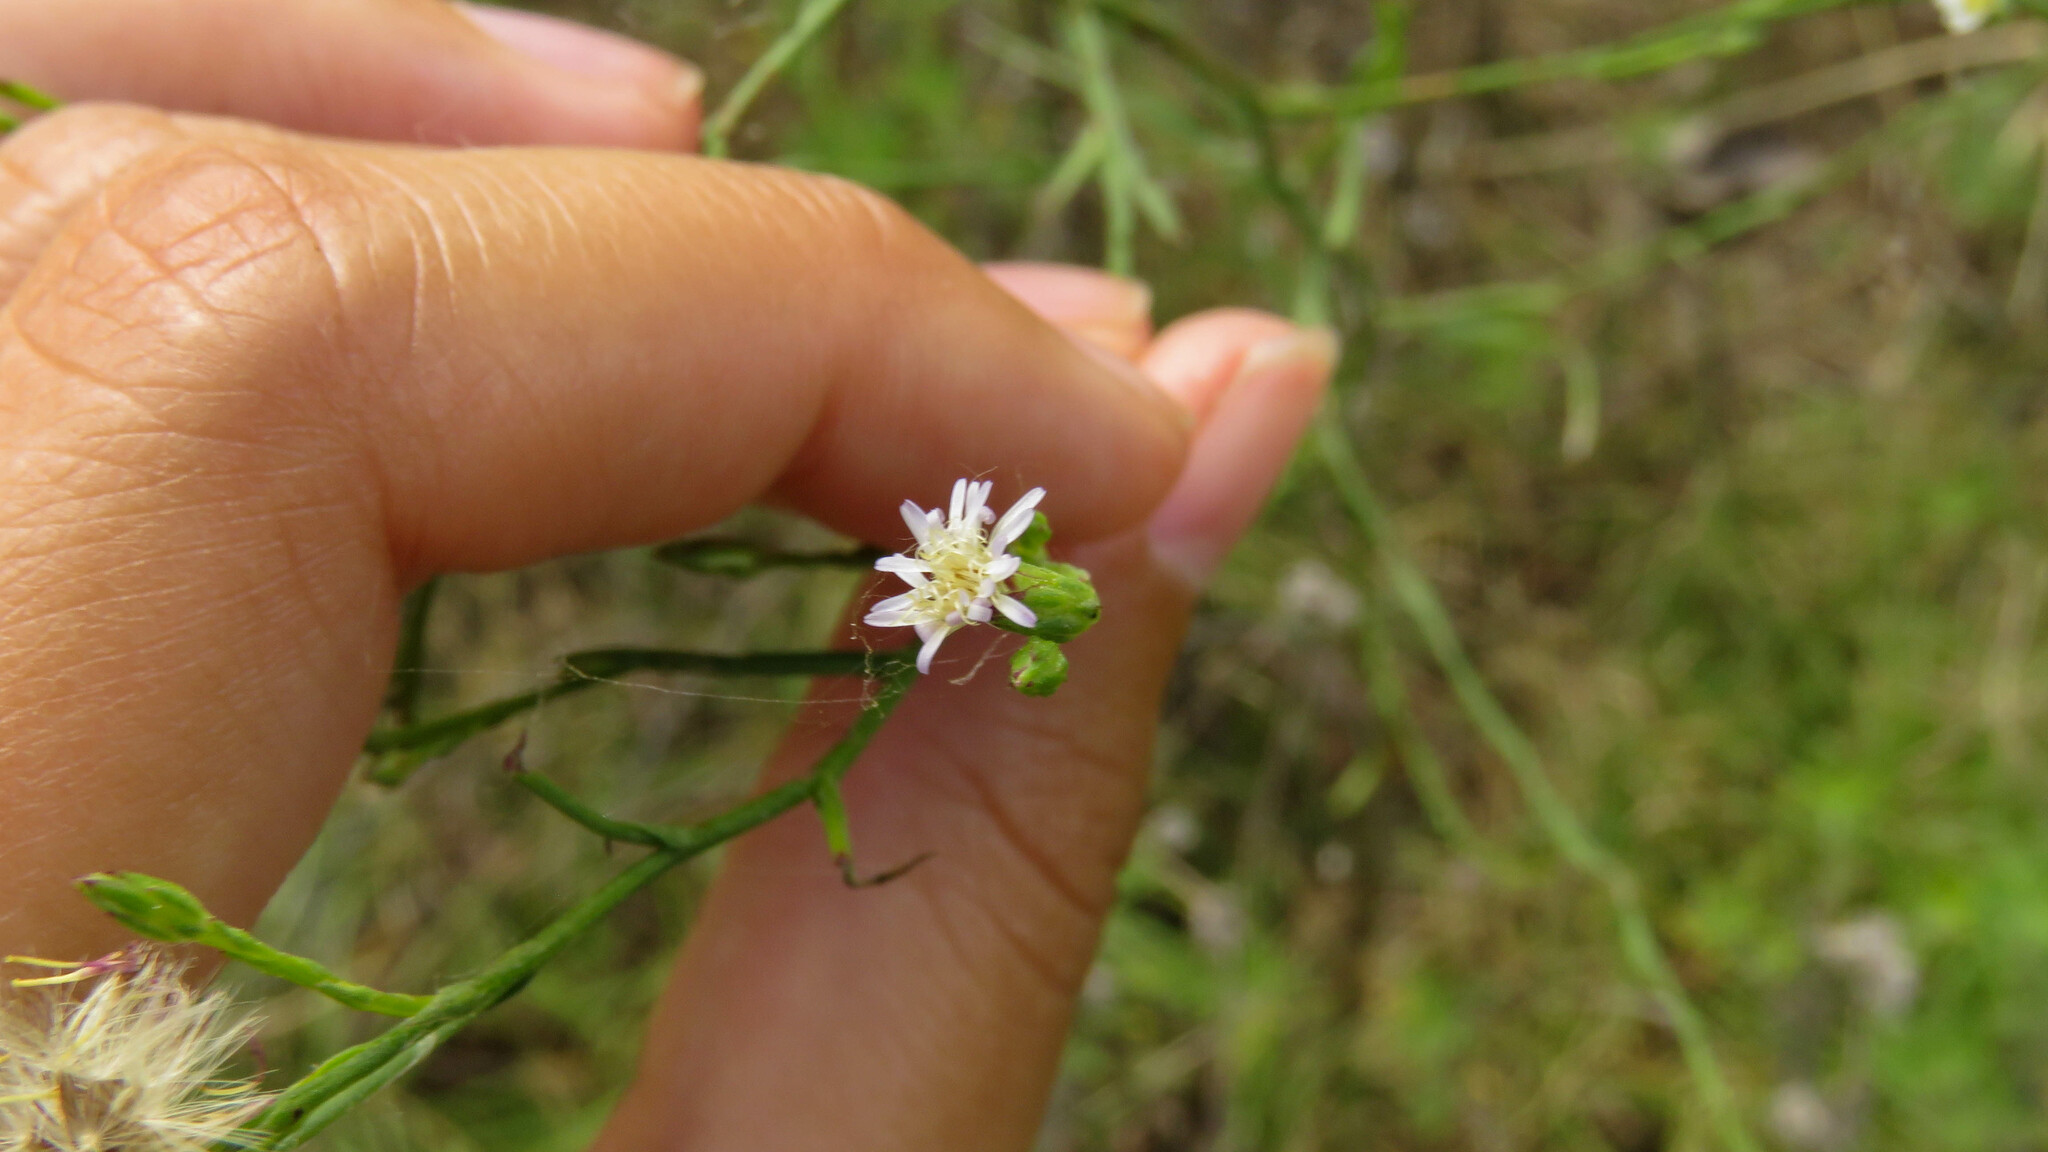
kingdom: Plantae
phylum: Tracheophyta
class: Magnoliopsida
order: Asterales
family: Asteraceae
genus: Symphyotrichum
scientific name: Symphyotrichum squamatum
